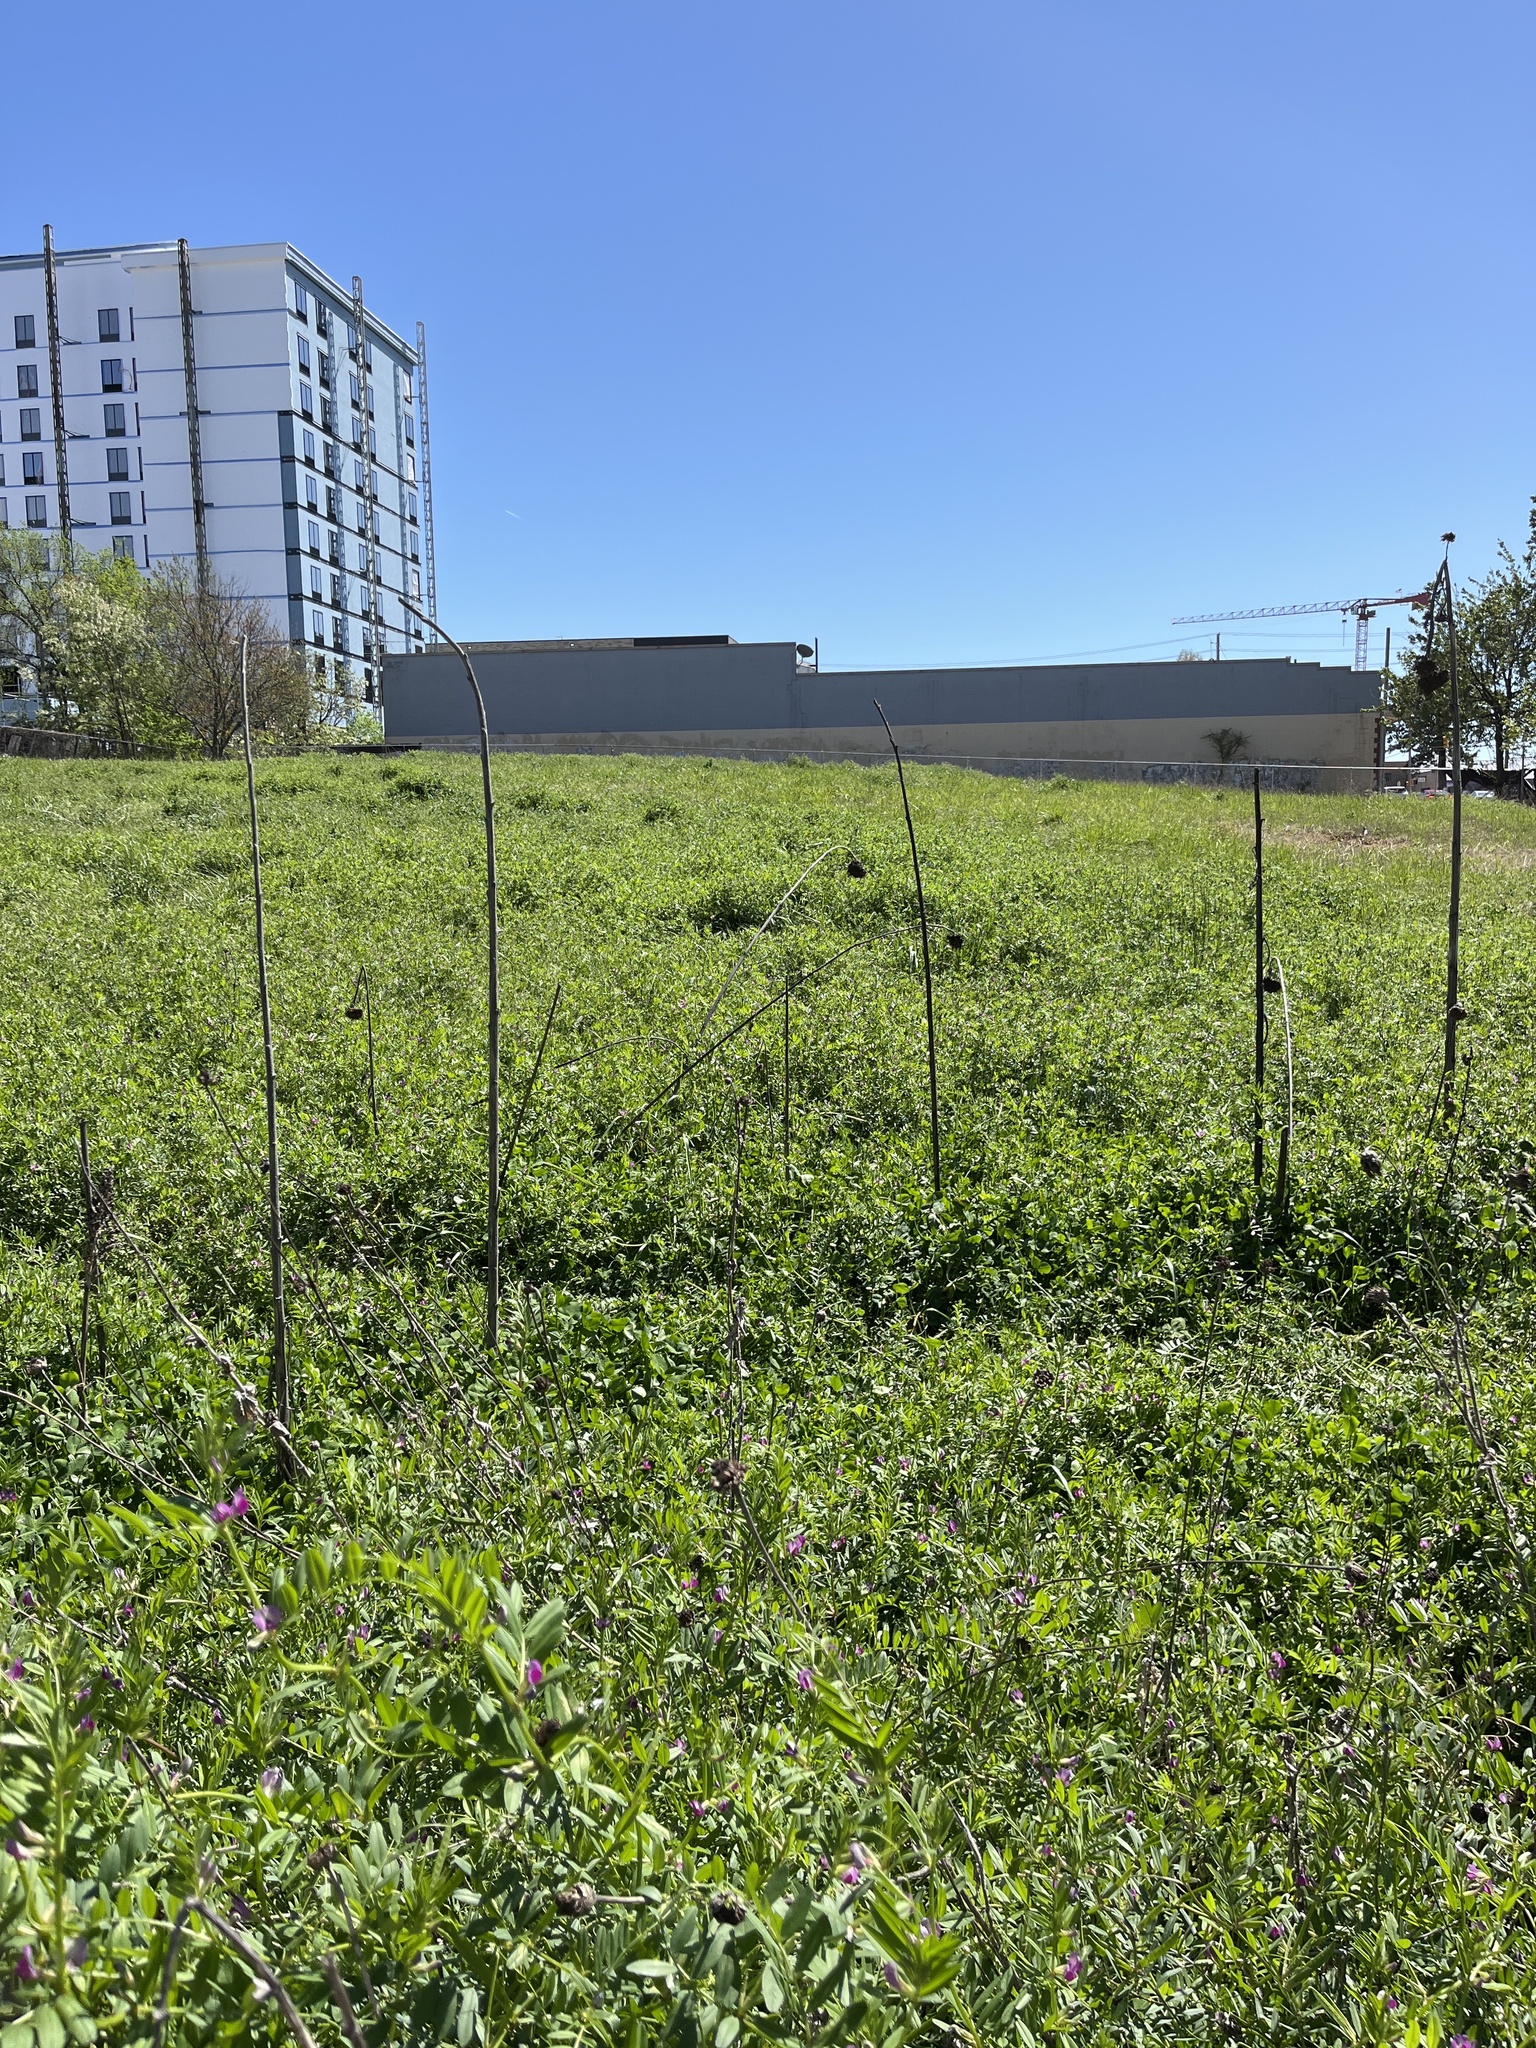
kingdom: Plantae
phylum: Tracheophyta
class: Magnoliopsida
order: Fabales
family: Fabaceae
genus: Vicia
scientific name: Vicia sativa
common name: Garden vetch
